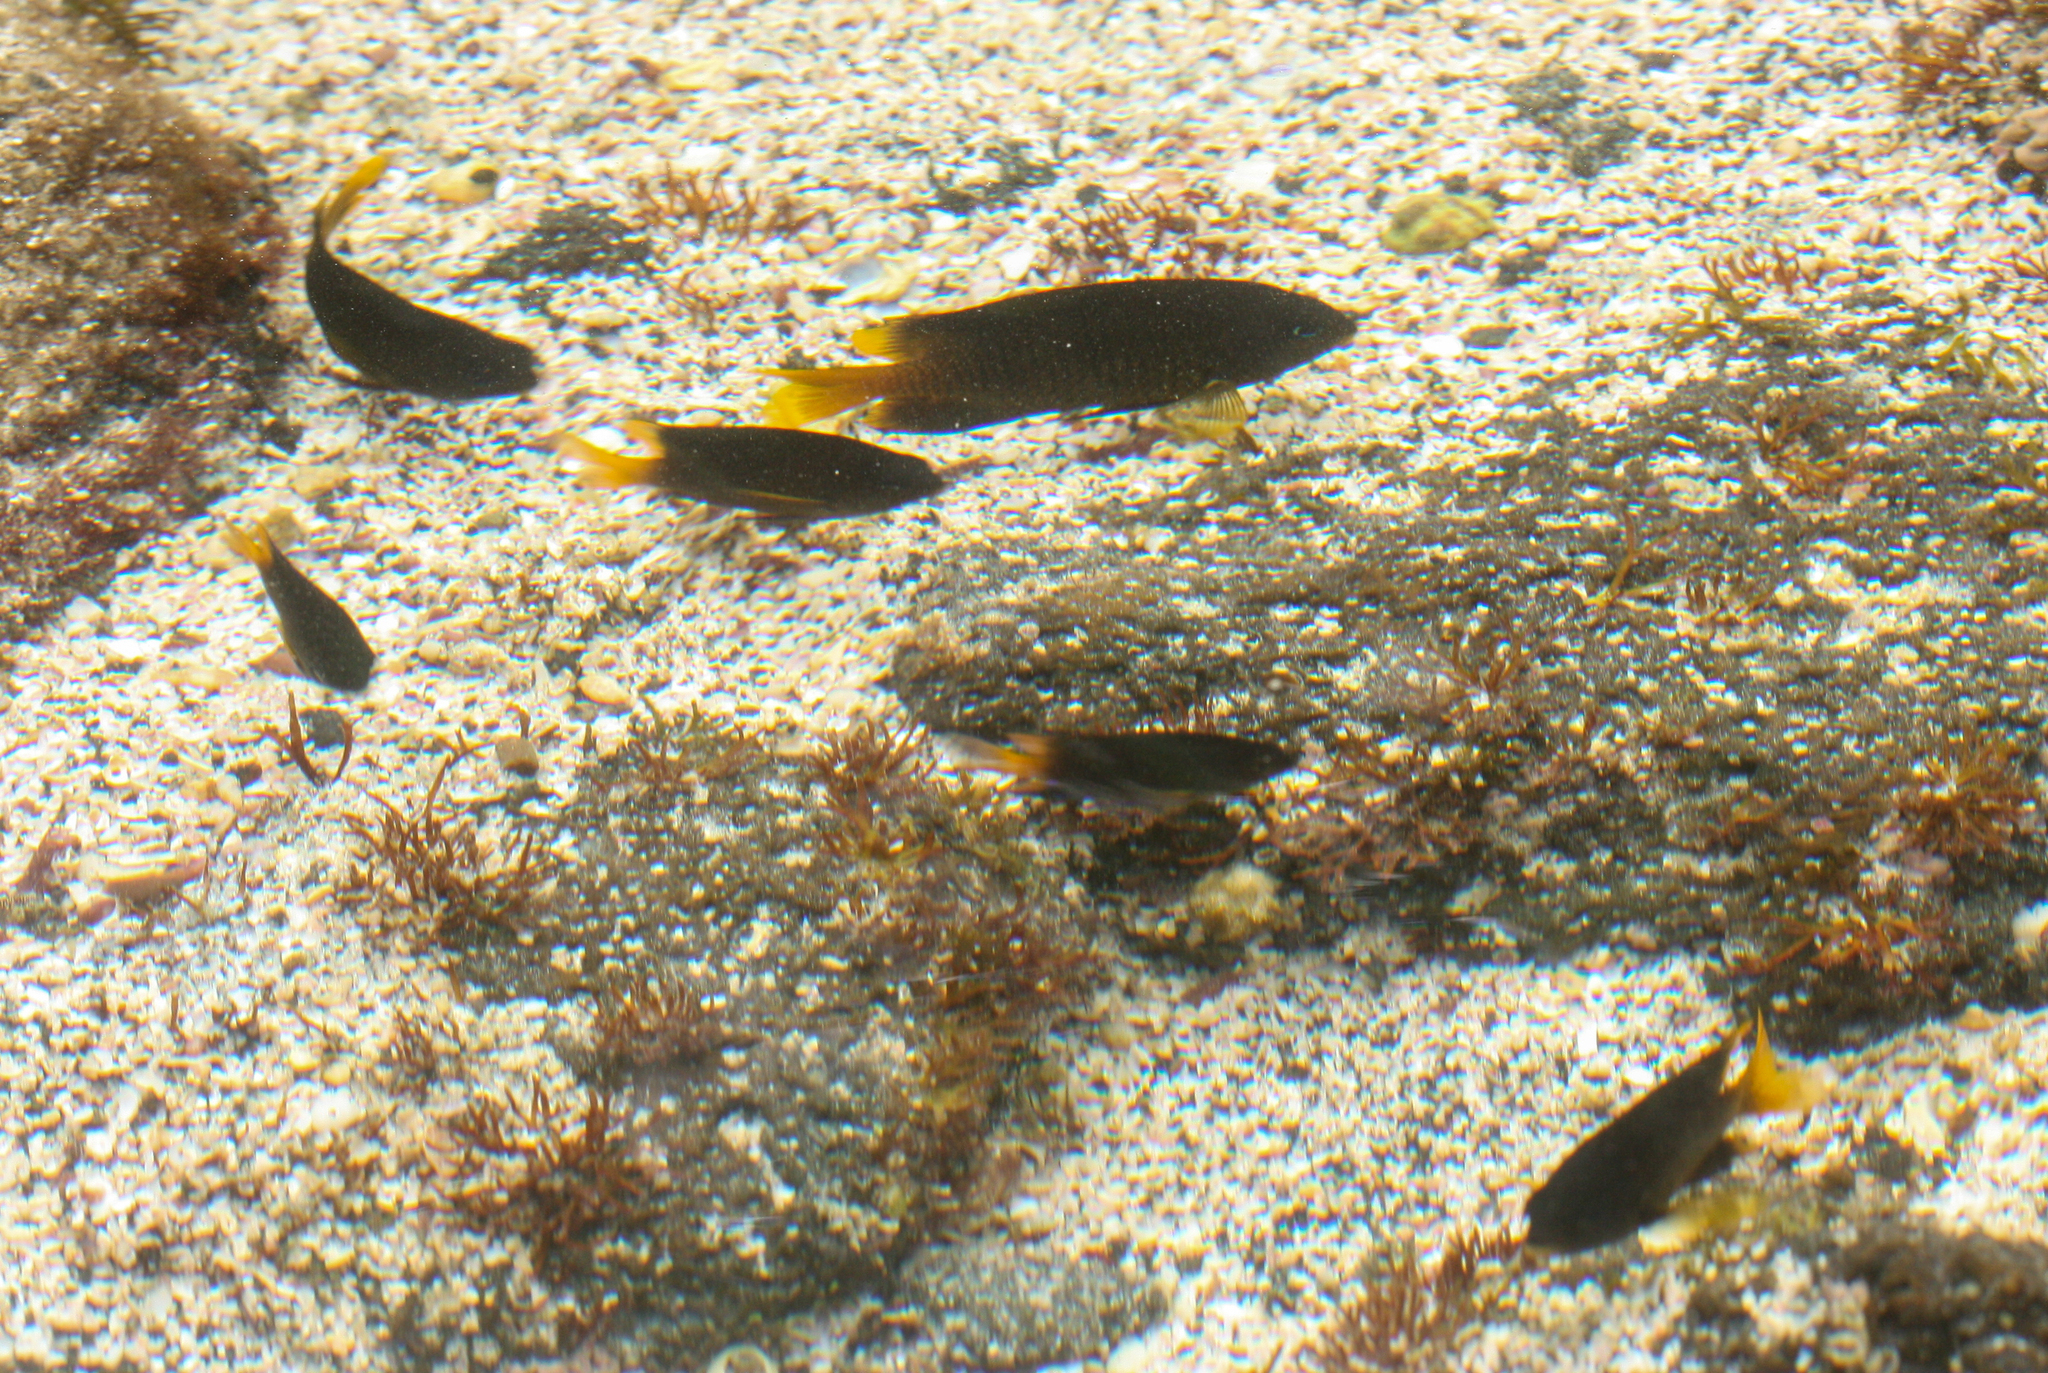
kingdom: Animalia
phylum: Chordata
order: Perciformes
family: Pomacentridae
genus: Stegastes
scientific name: Stegastes arcifrons
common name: Galapagos gregory
